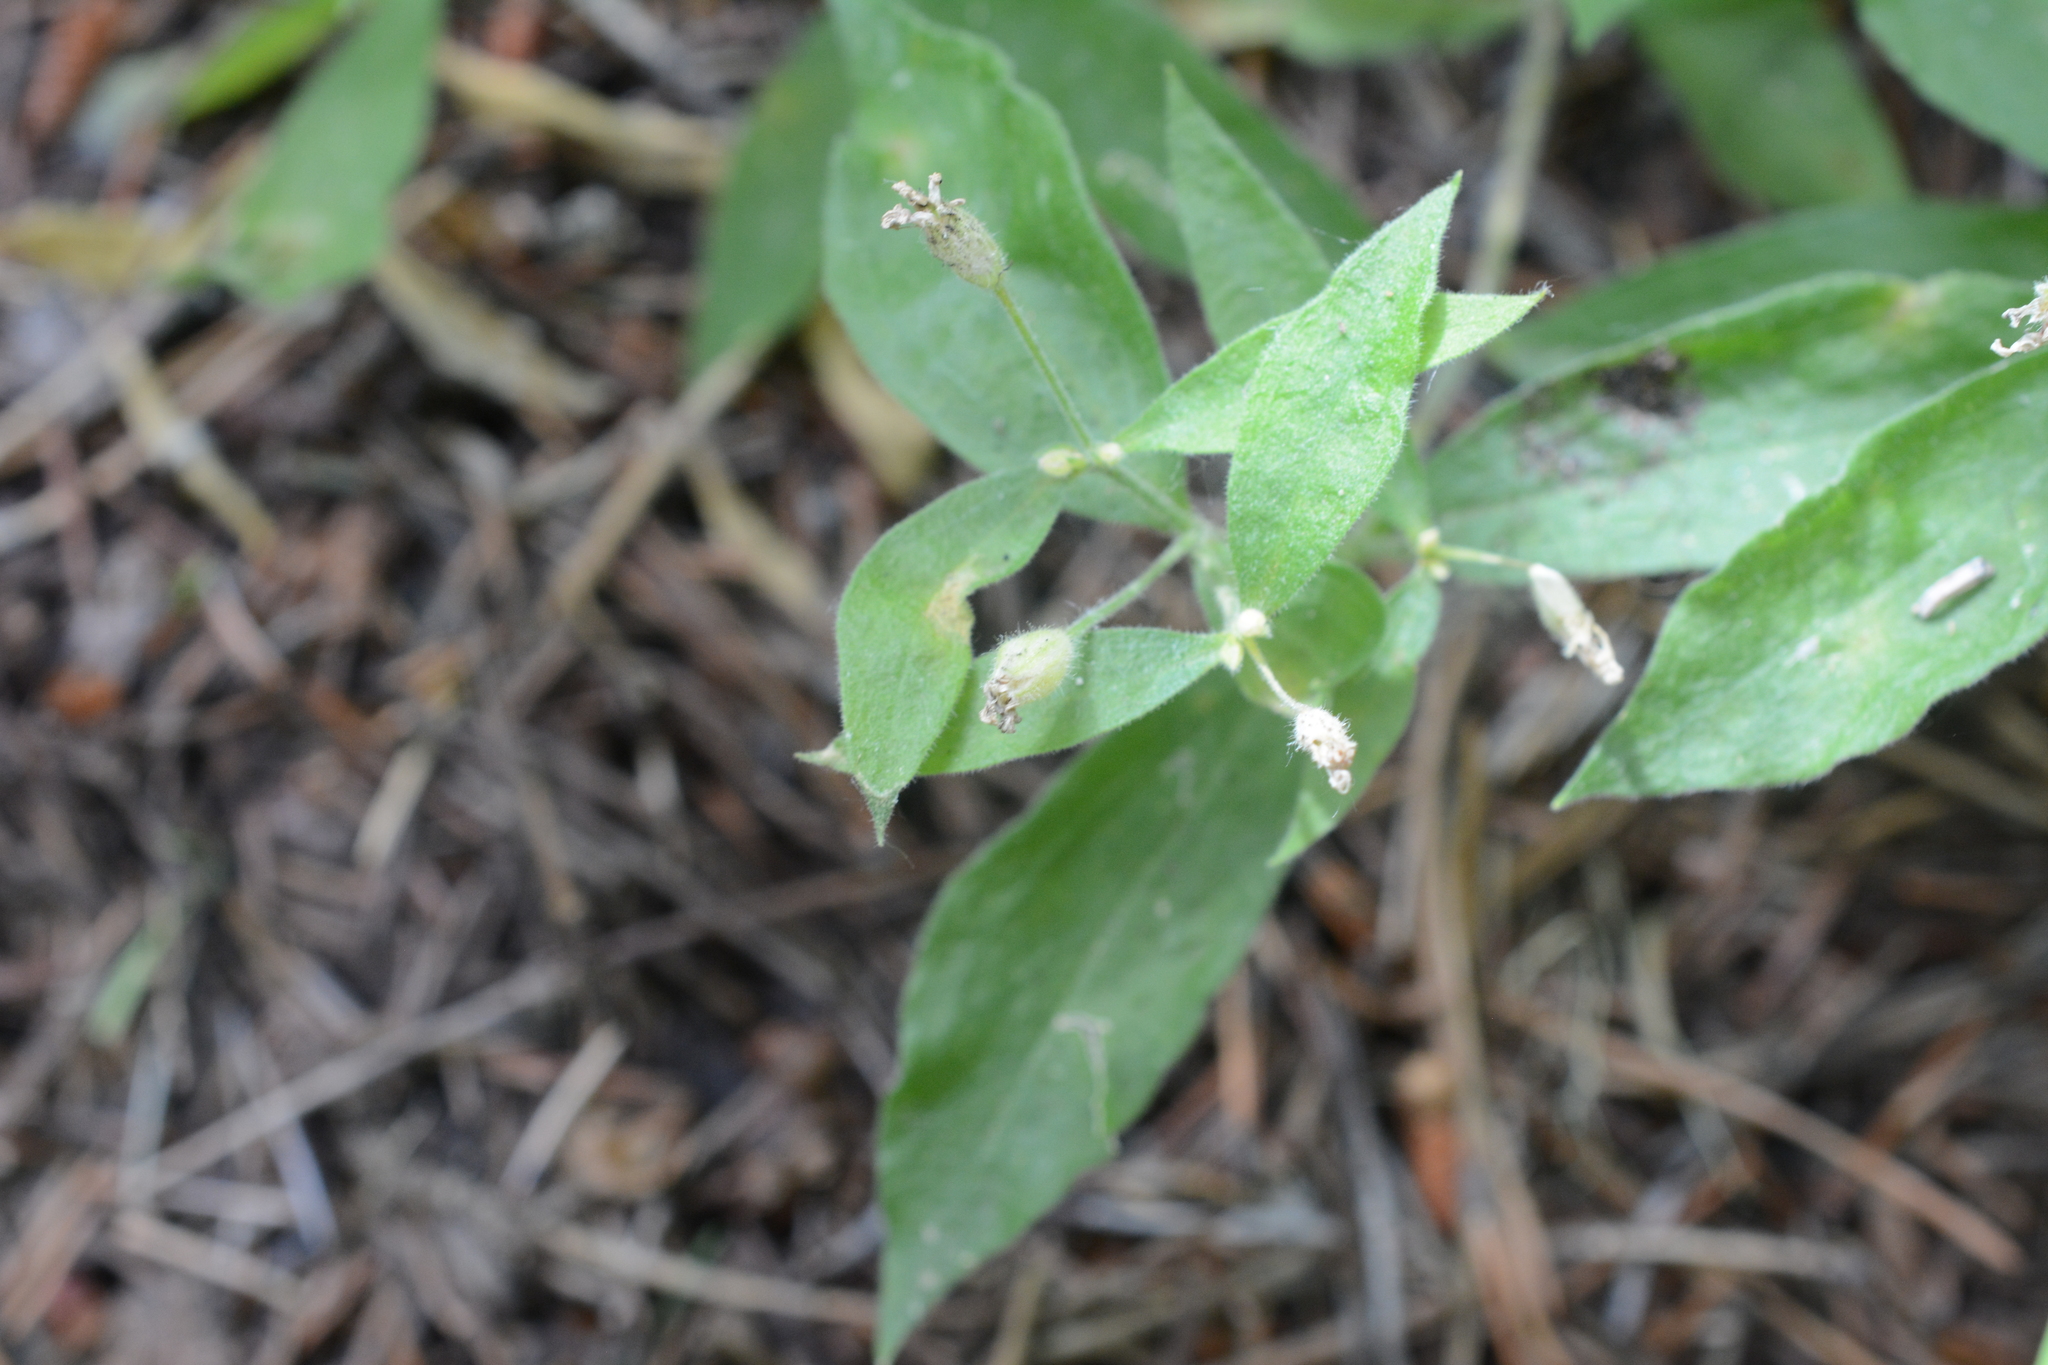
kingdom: Plantae
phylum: Tracheophyta
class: Magnoliopsida
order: Caryophyllales
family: Caryophyllaceae
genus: Silene
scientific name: Silene menziesii
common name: Menzies's catchfly
